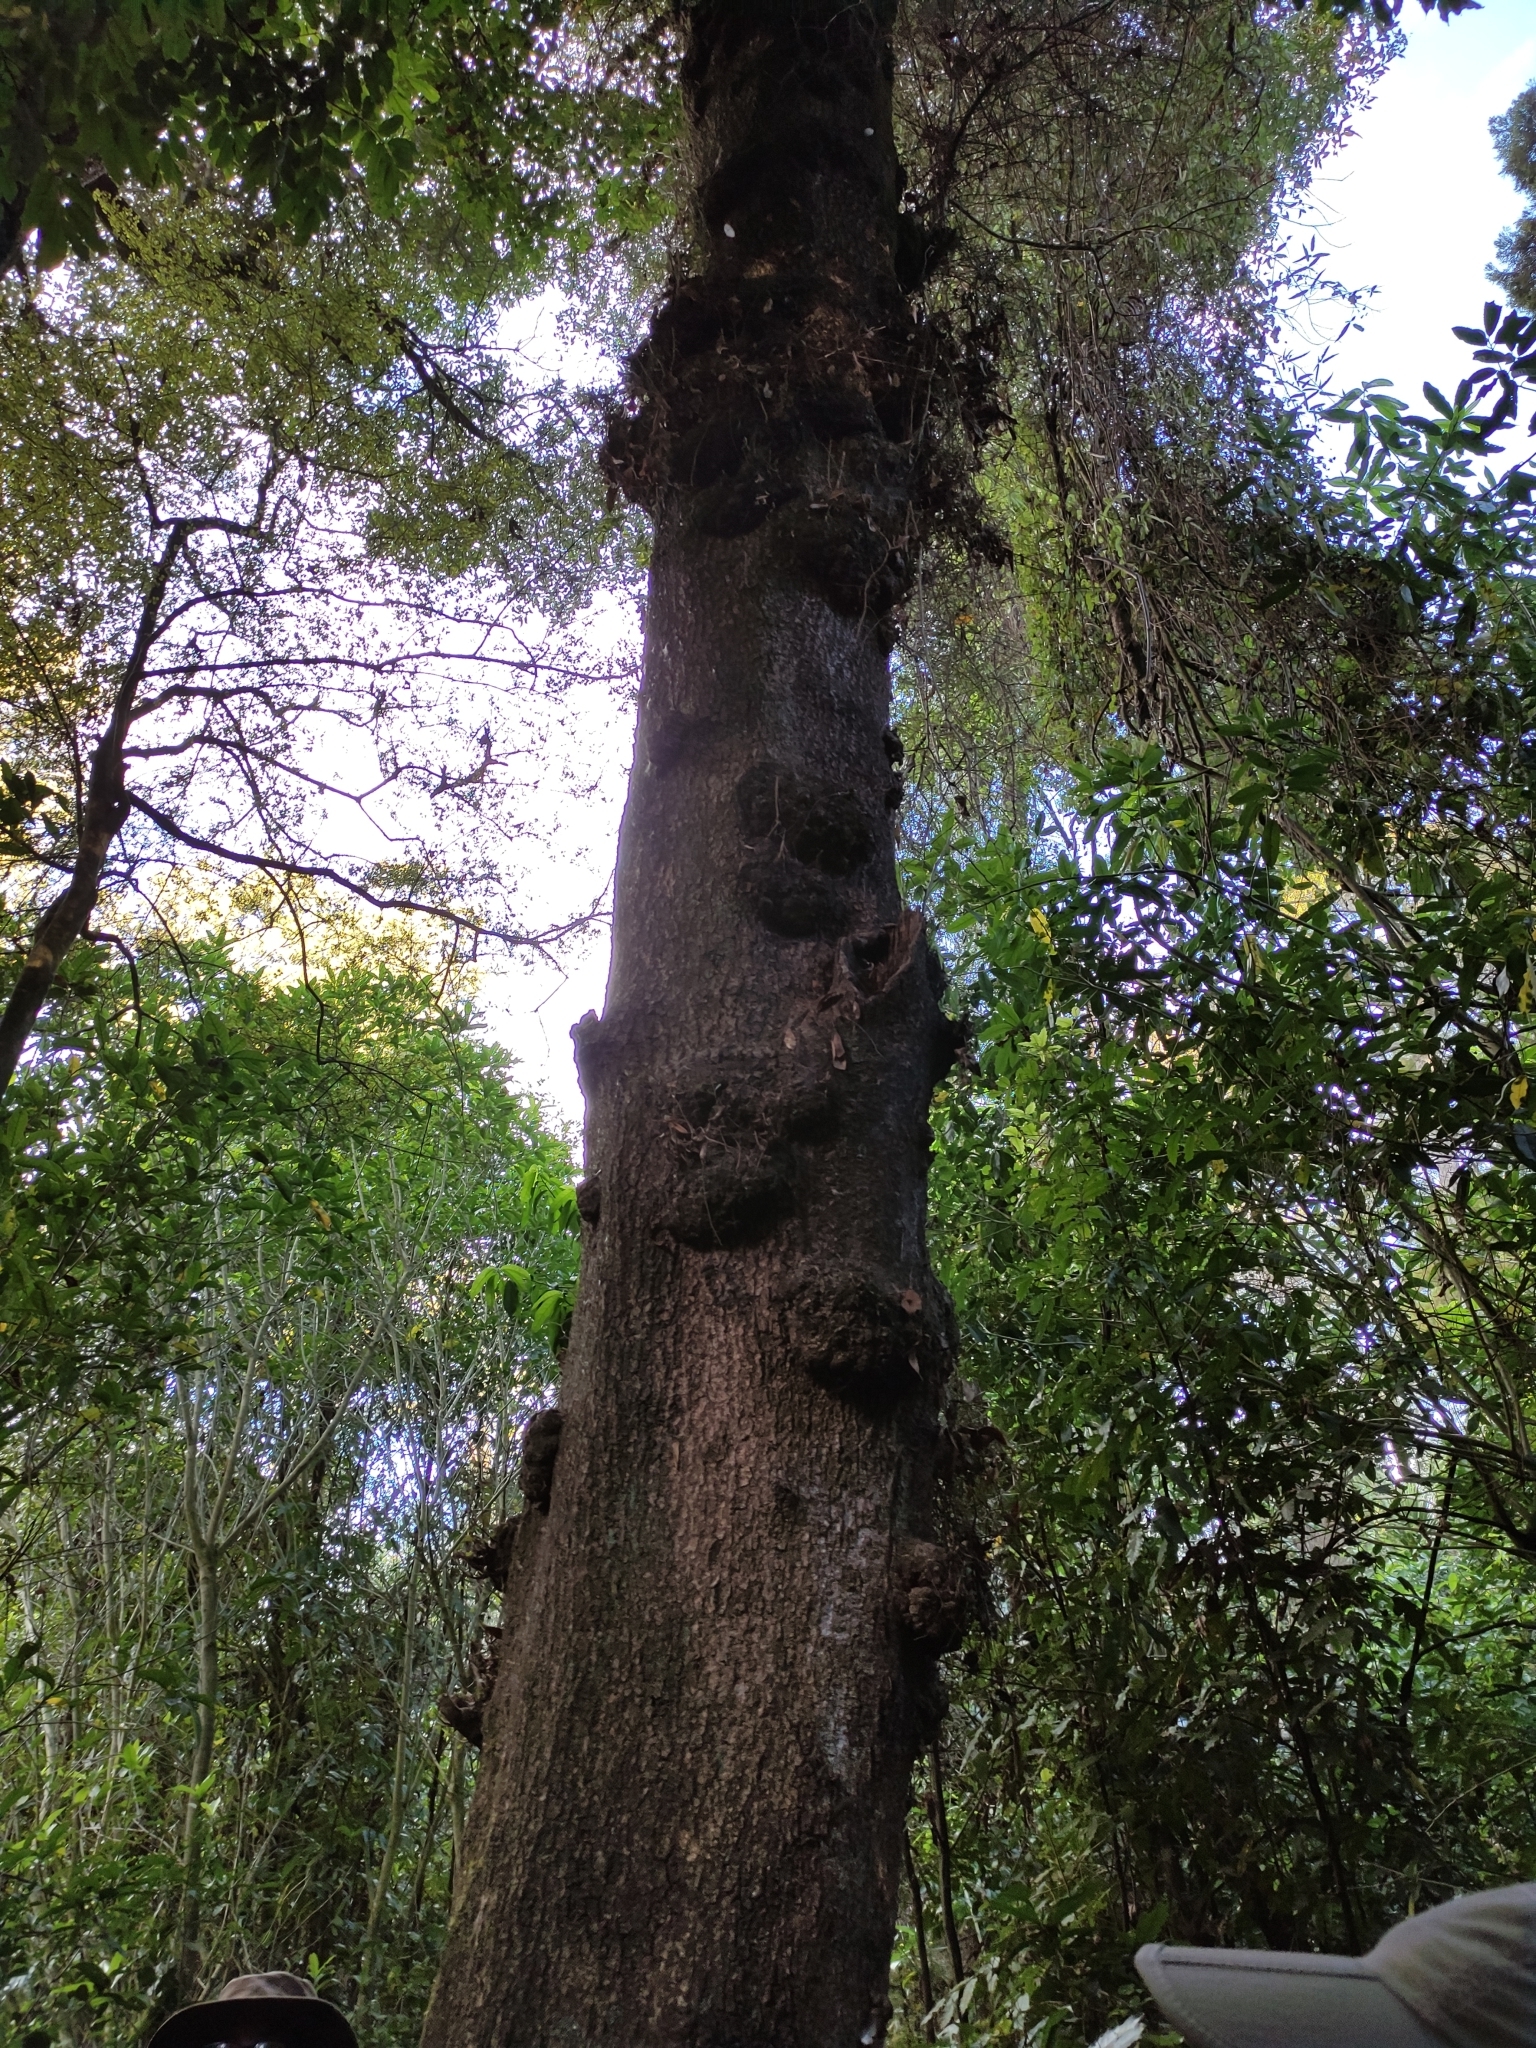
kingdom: Plantae
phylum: Tracheophyta
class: Magnoliopsida
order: Oxalidales
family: Elaeocarpaceae
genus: Elaeocarpus
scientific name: Elaeocarpus hookerianus
